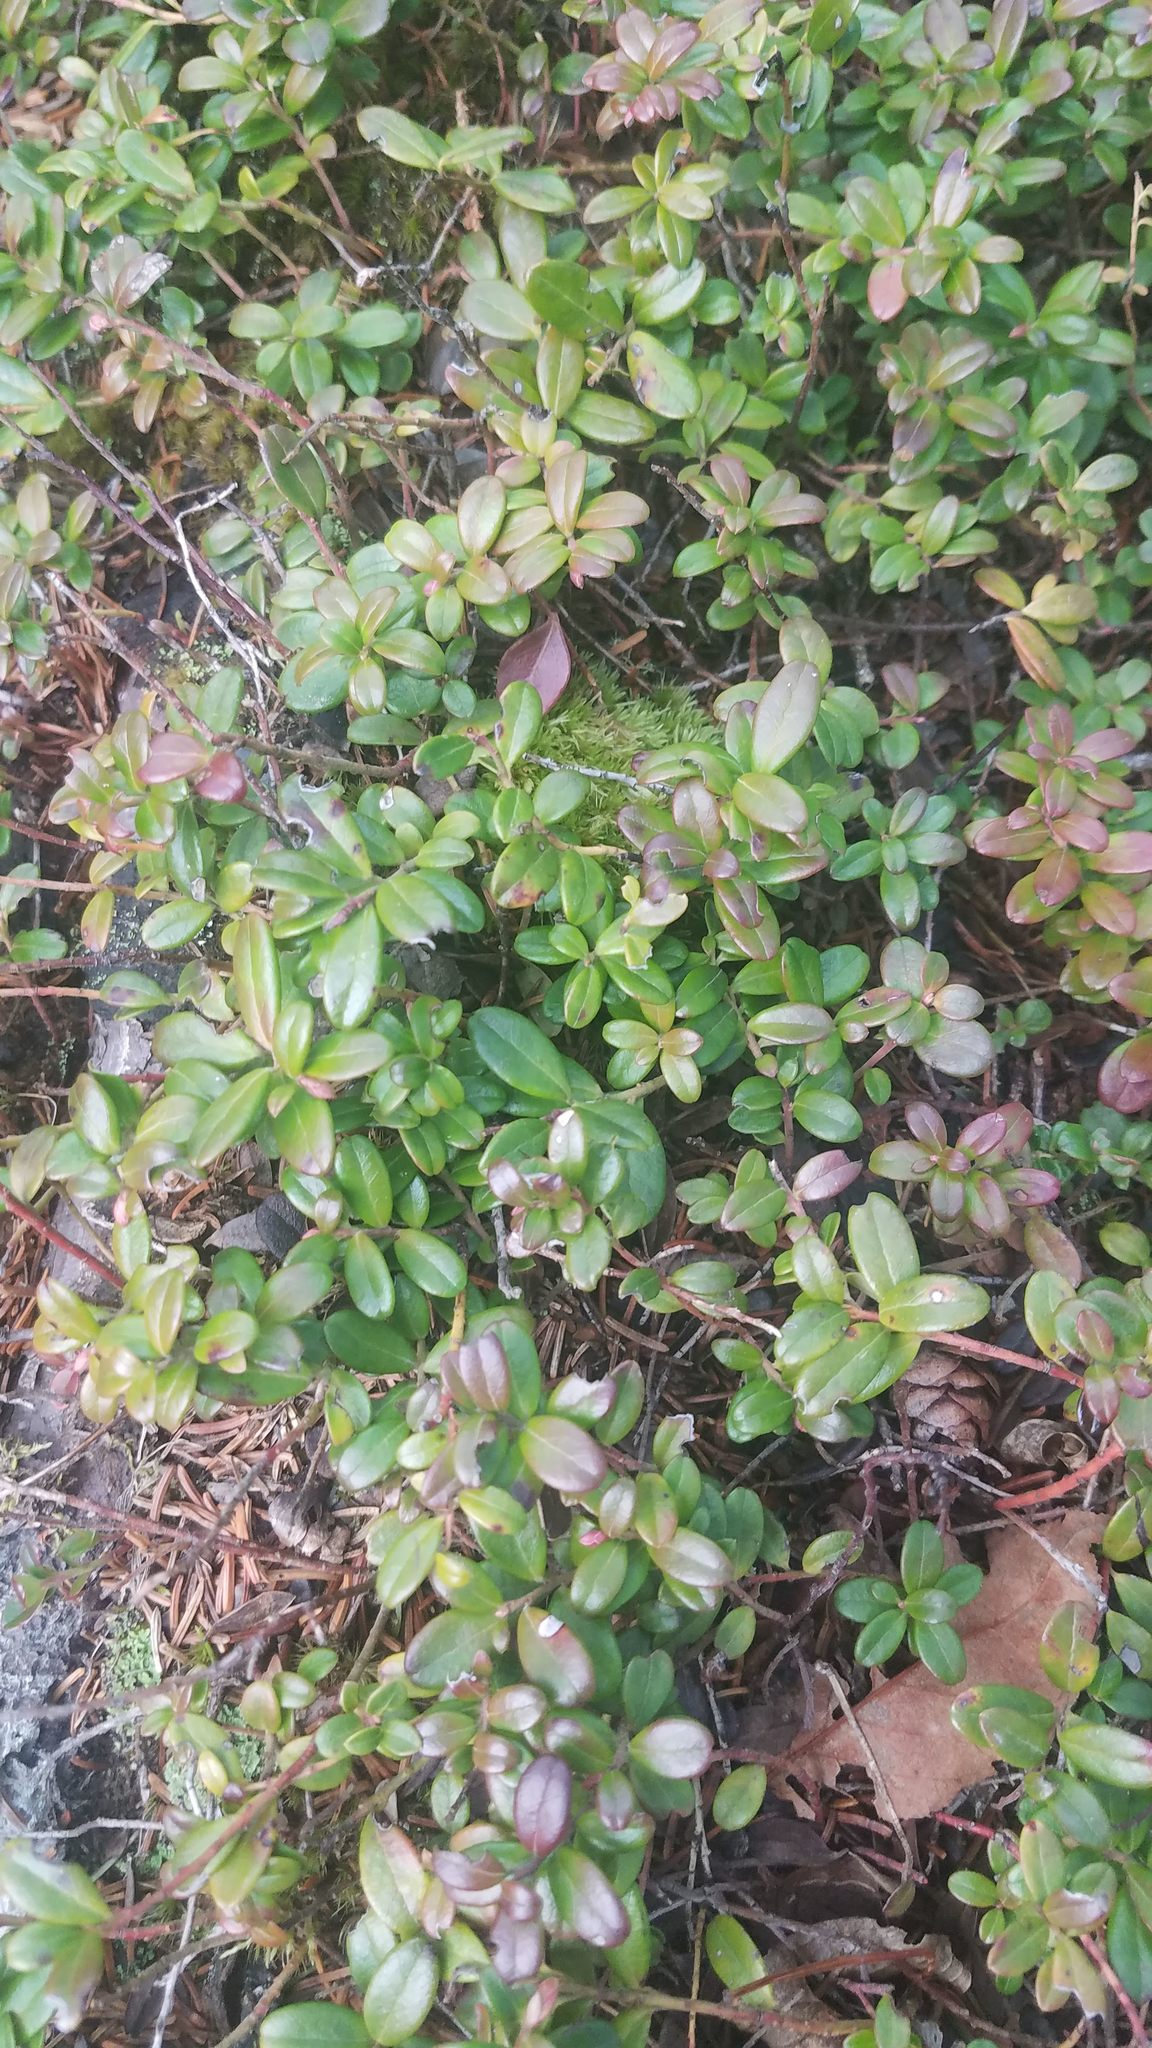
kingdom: Plantae
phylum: Tracheophyta
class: Magnoliopsida
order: Ericales
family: Ericaceae
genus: Vaccinium
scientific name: Vaccinium vitis-idaea
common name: Cowberry
